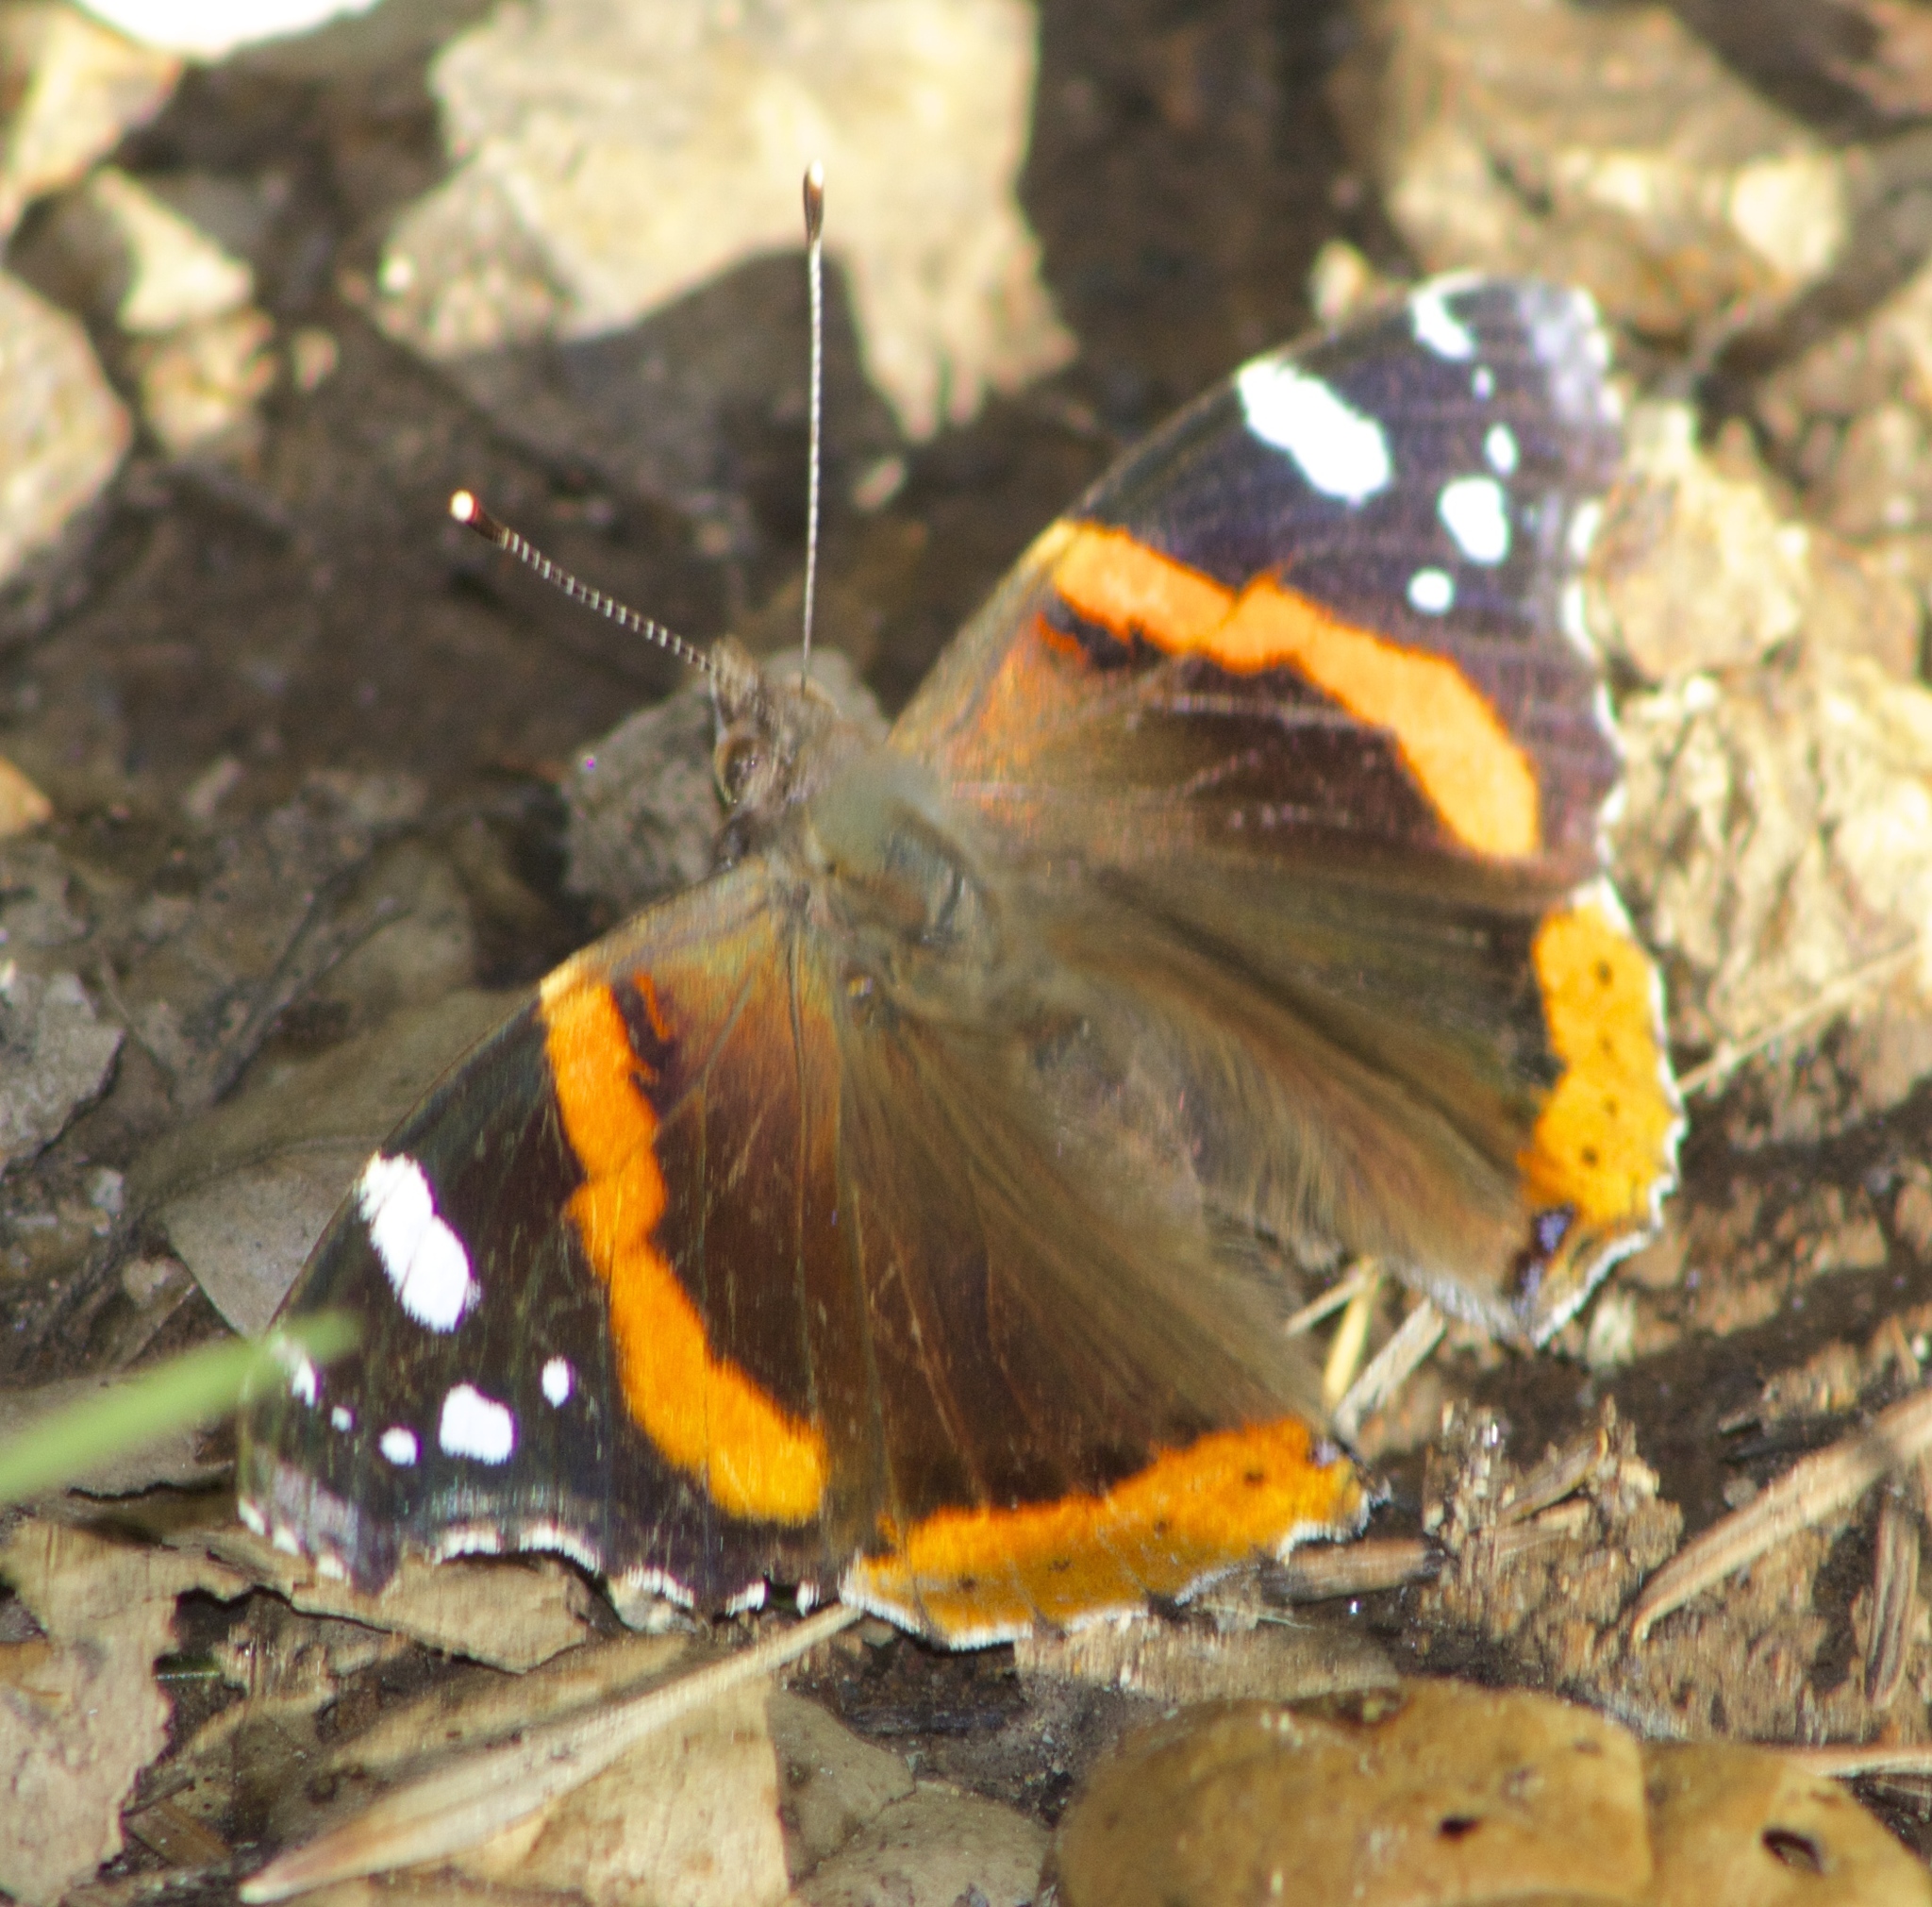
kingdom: Animalia
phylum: Arthropoda
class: Insecta
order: Lepidoptera
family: Nymphalidae
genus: Vanessa
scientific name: Vanessa atalanta
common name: Red admiral
